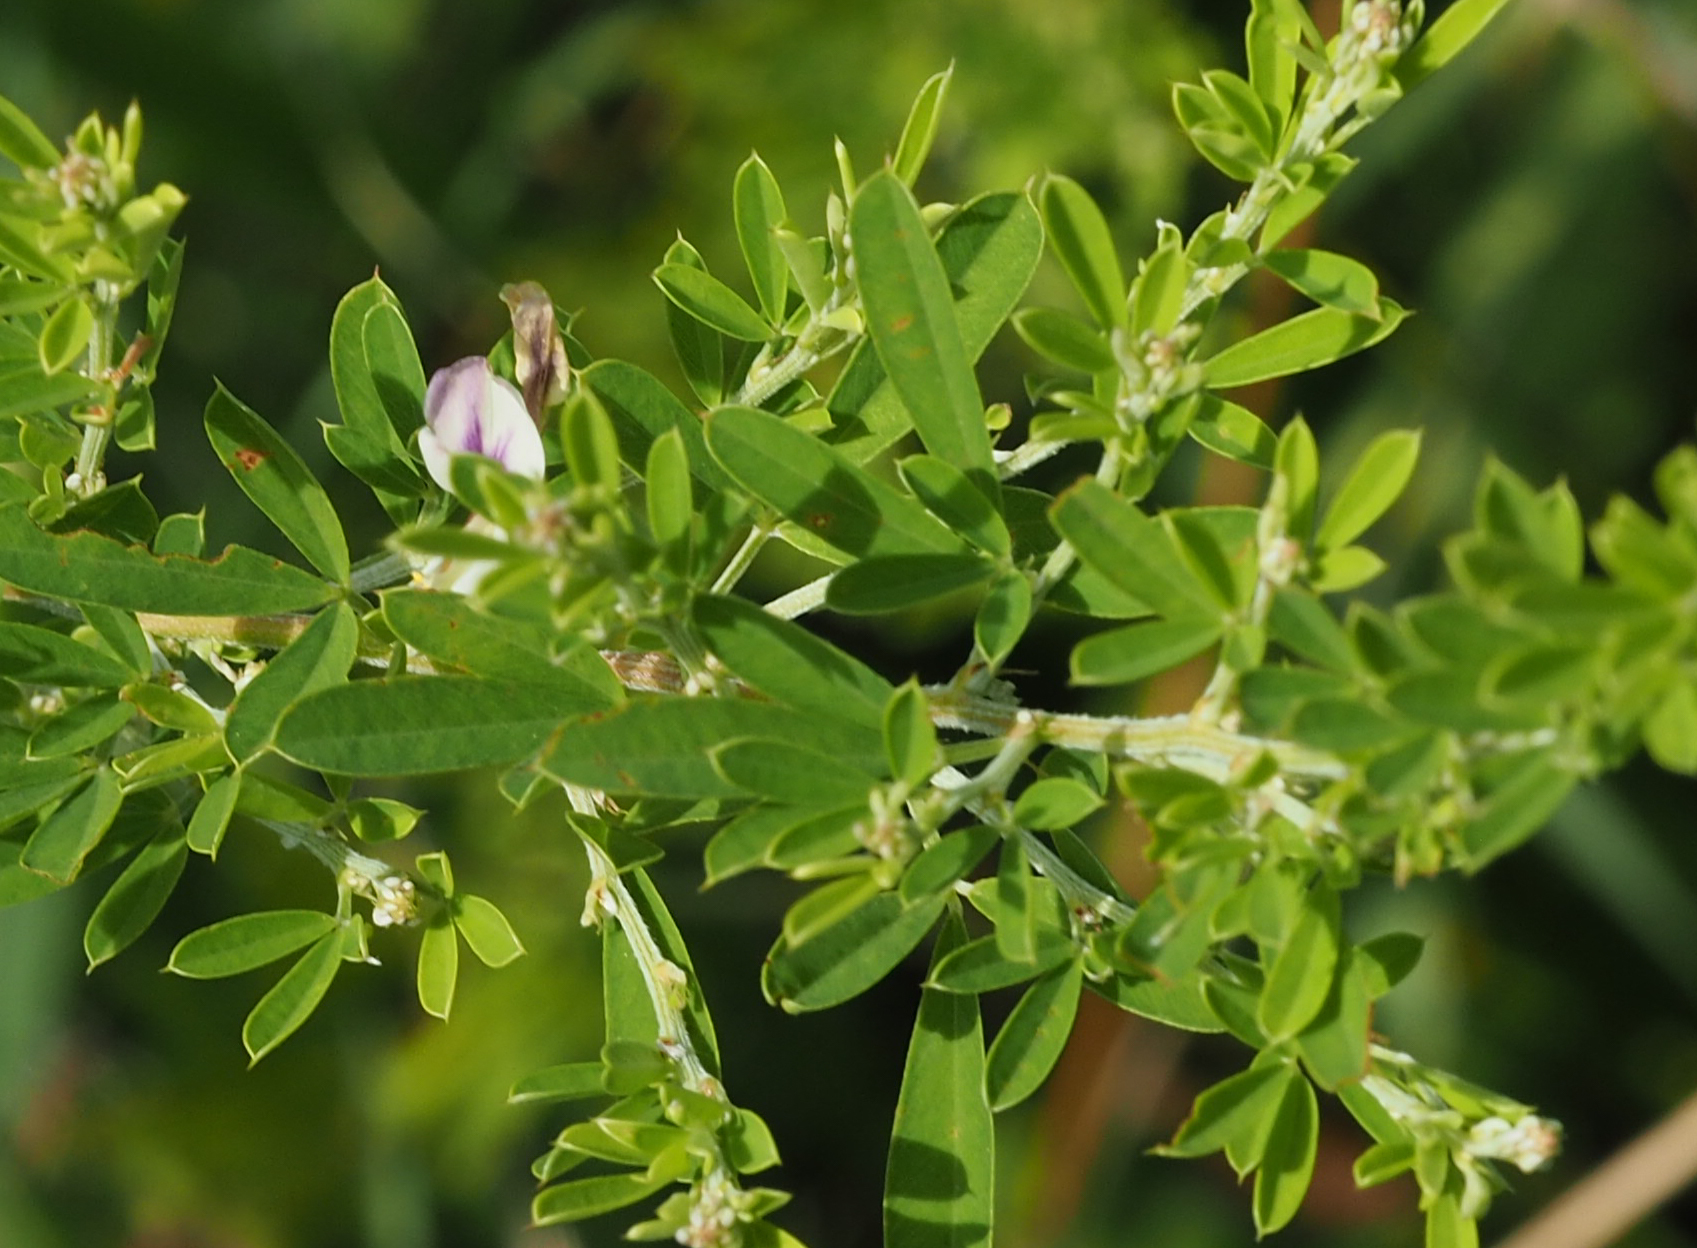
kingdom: Plantae
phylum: Tracheophyta
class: Magnoliopsida
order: Fabales
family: Fabaceae
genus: Lespedeza
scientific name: Lespedeza cuneata
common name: Chinese bush-clover
